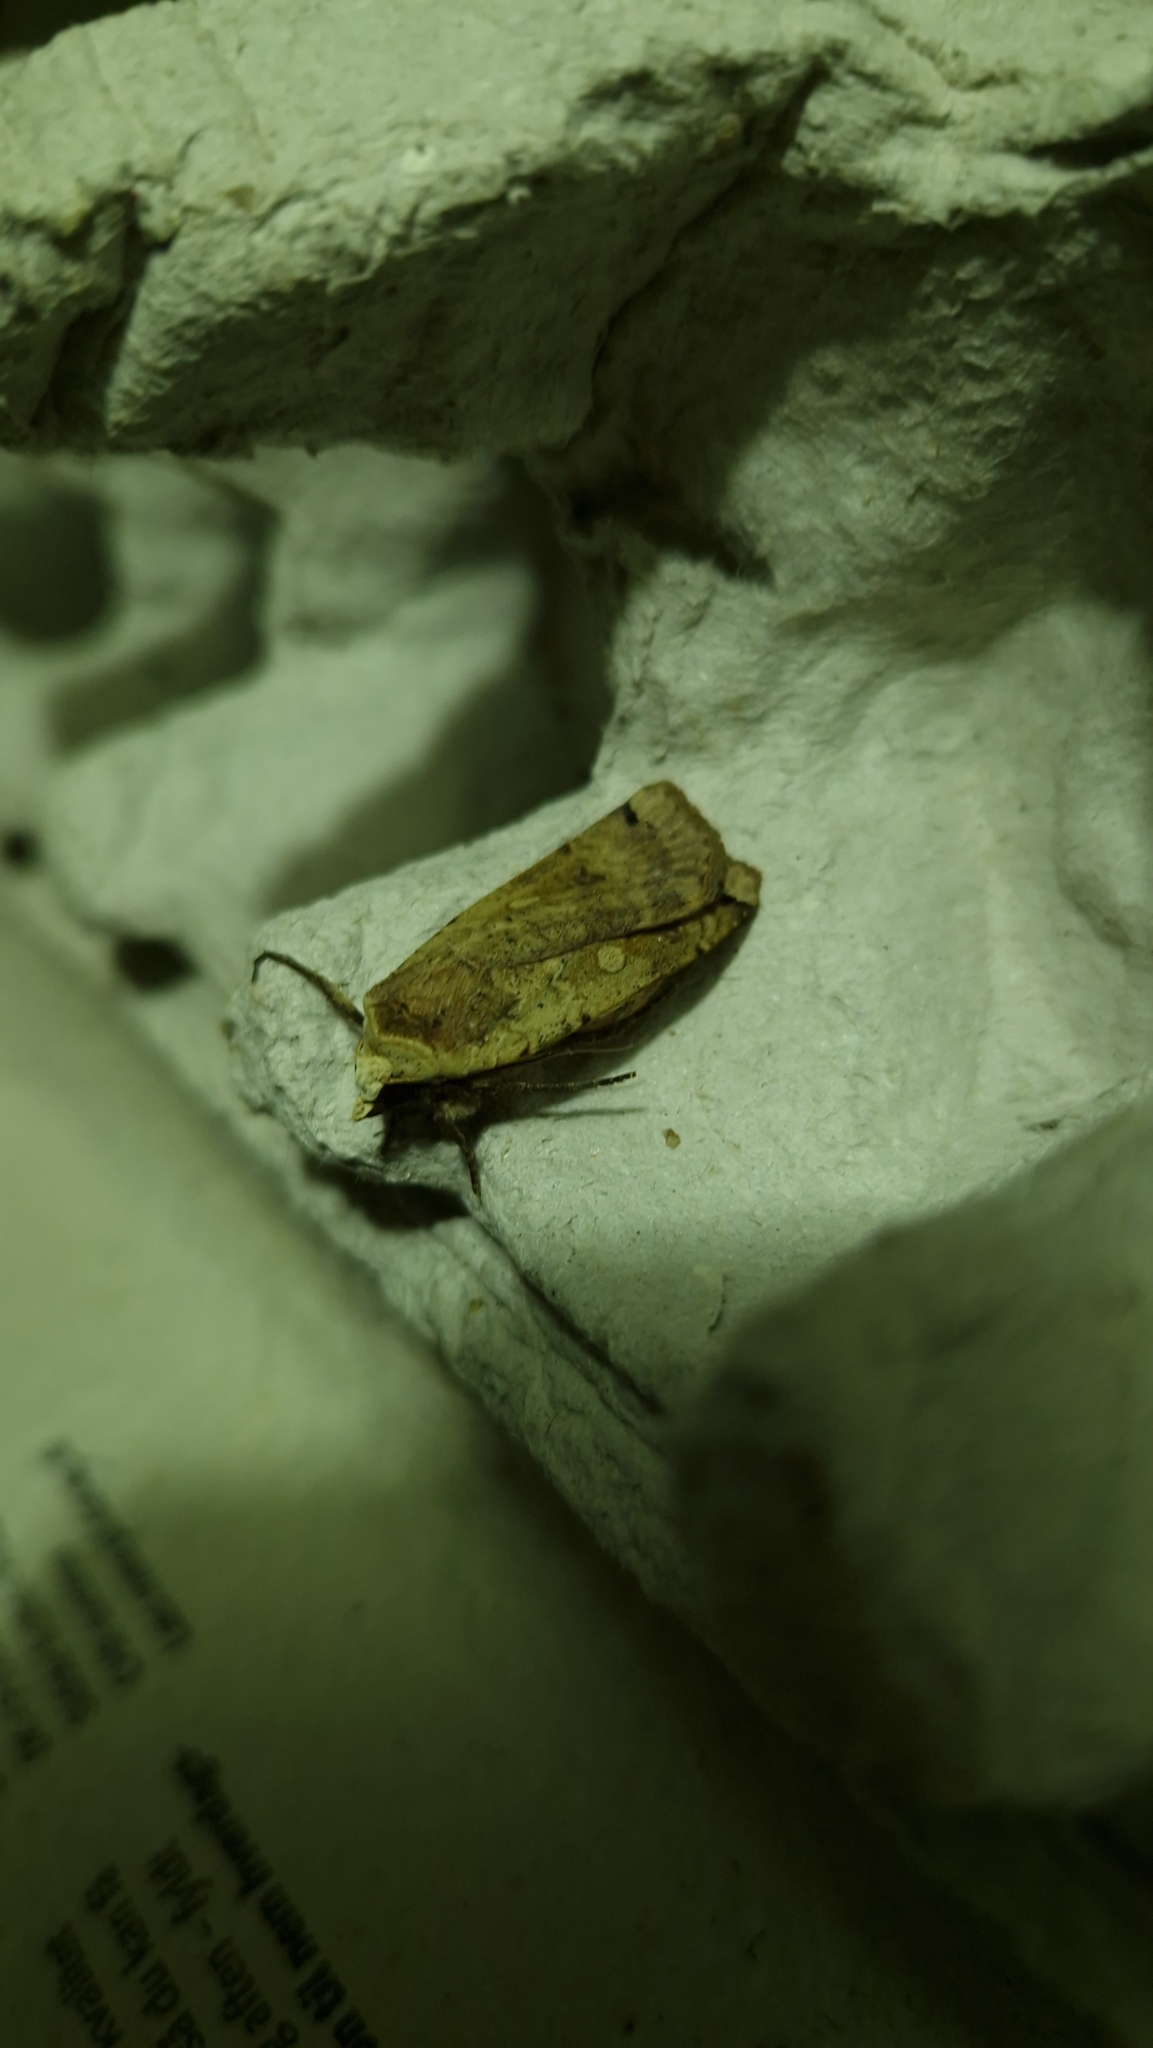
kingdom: Animalia
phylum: Arthropoda
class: Insecta
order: Lepidoptera
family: Noctuidae
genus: Noctua
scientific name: Noctua pronuba
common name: Large yellow underwing
